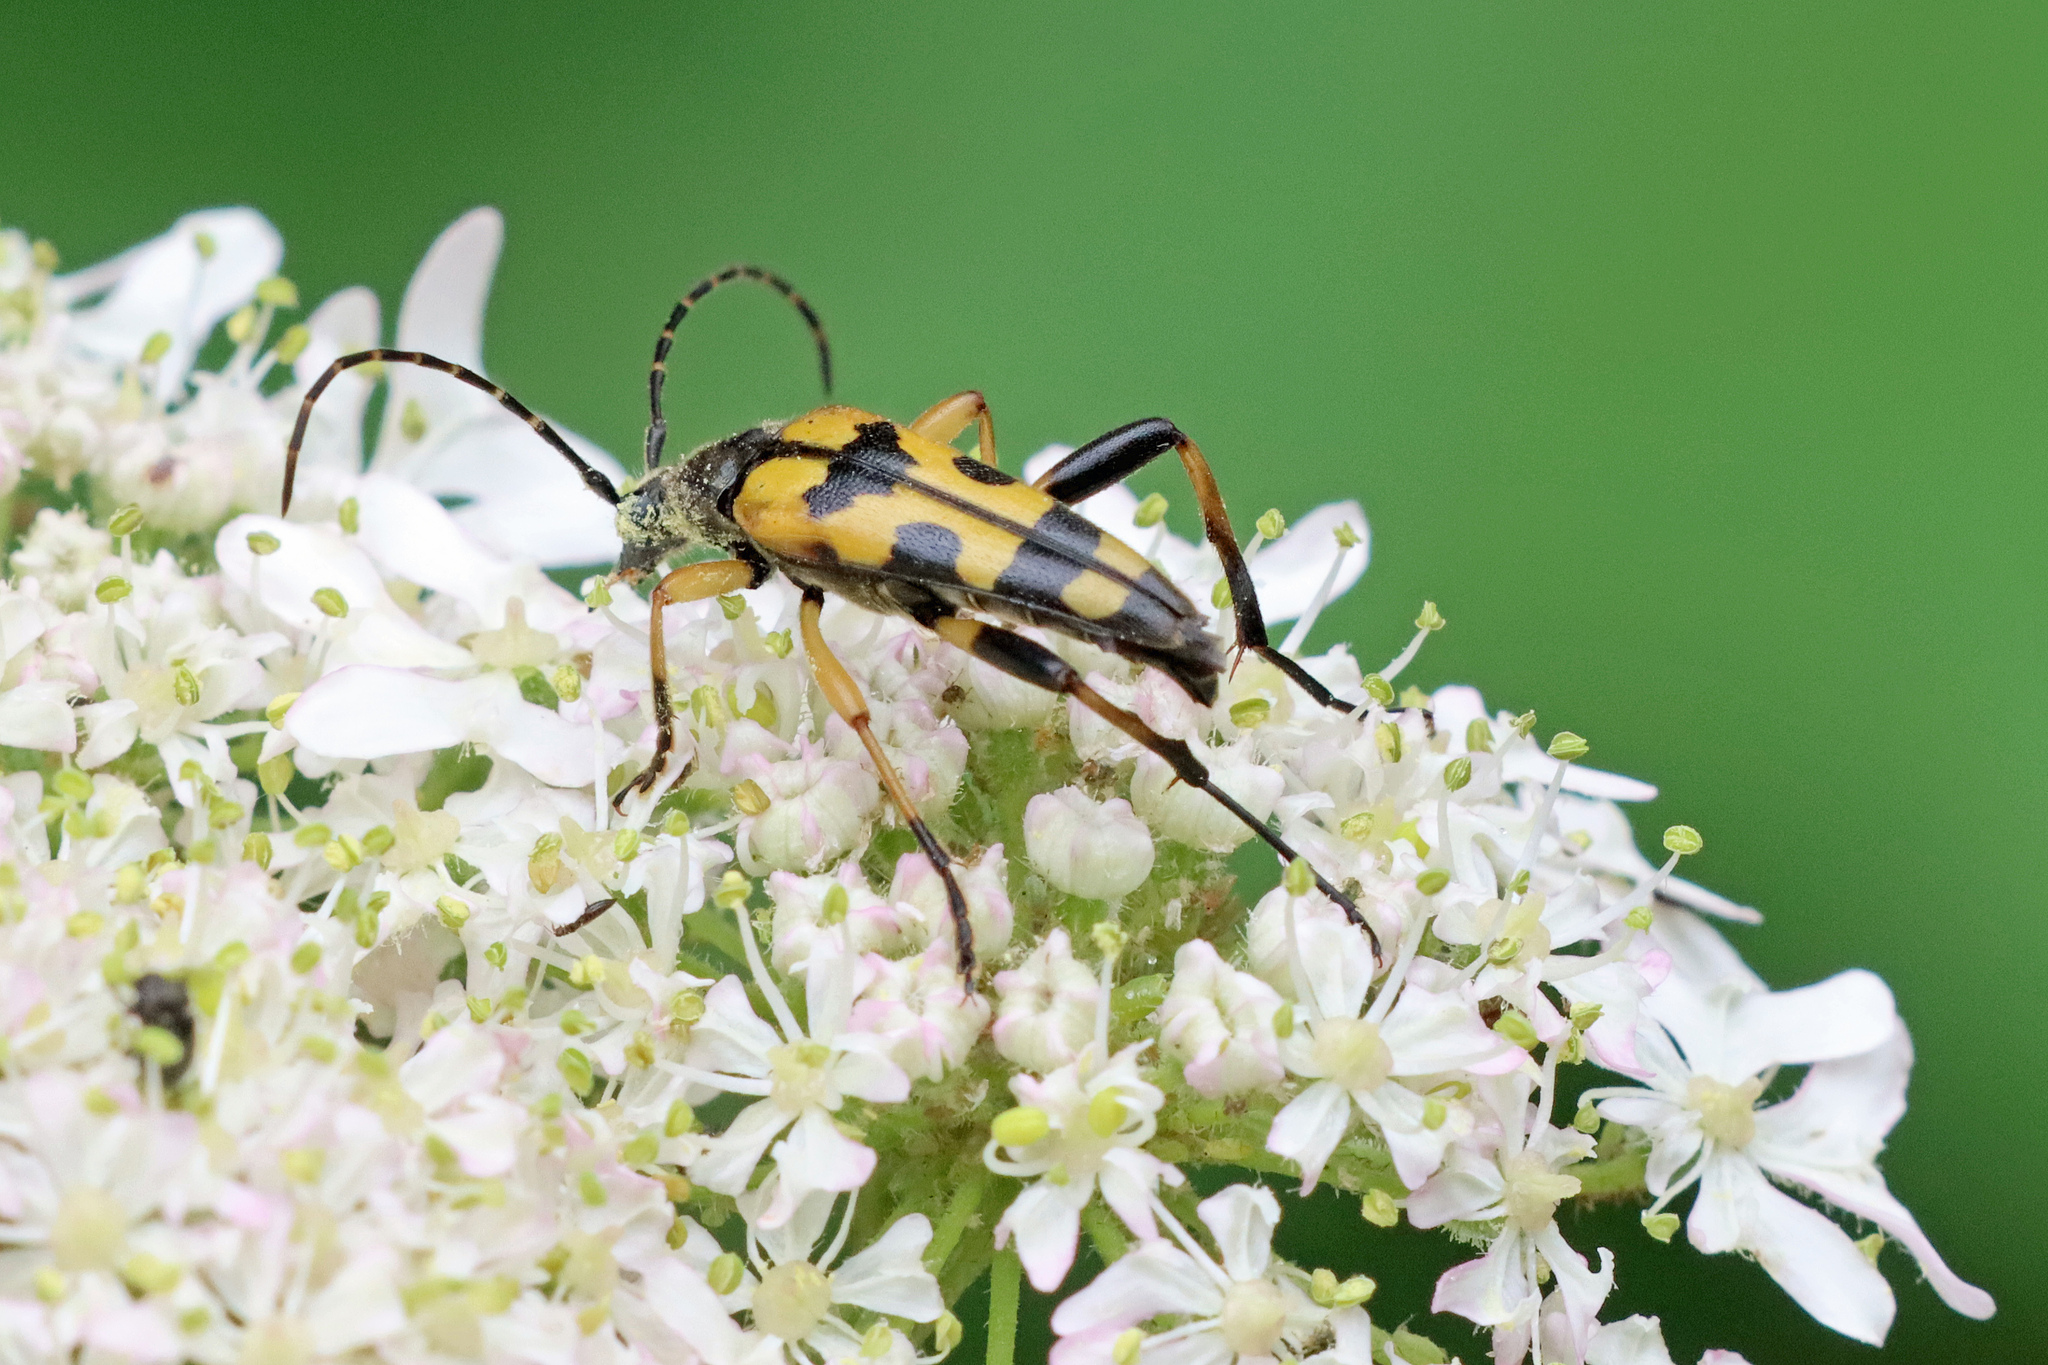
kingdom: Animalia
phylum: Arthropoda
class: Insecta
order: Coleoptera
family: Cerambycidae
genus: Rutpela
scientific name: Rutpela maculata
